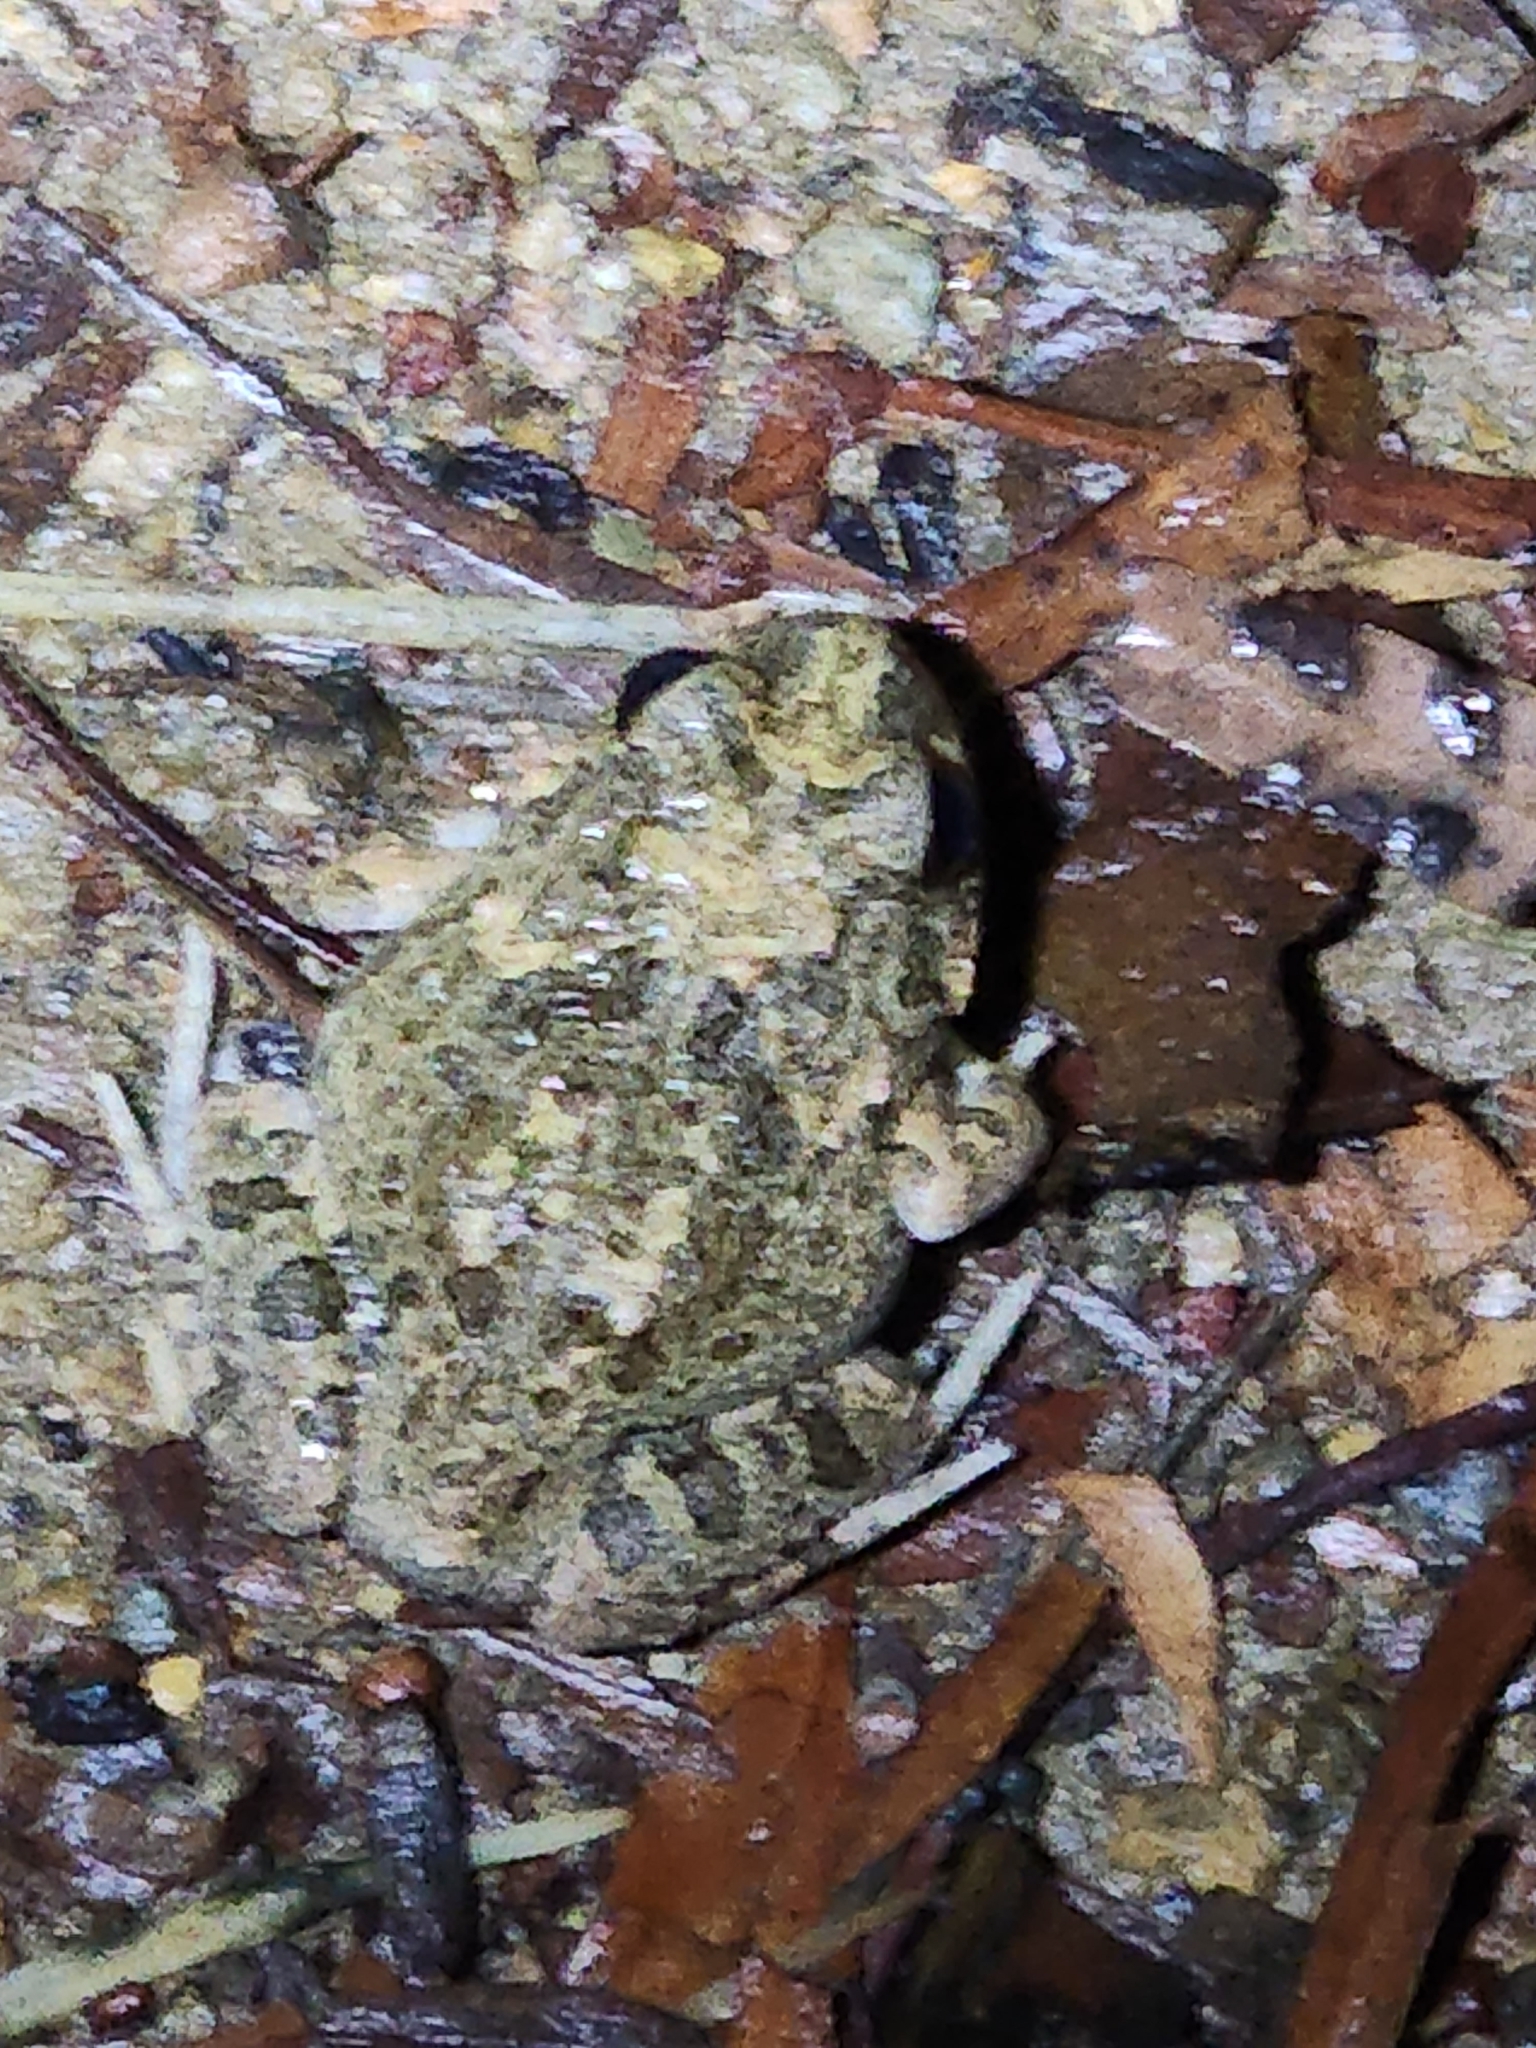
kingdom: Animalia
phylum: Chordata
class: Amphibia
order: Anura
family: Limnodynastidae
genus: Platyplectrum
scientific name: Platyplectrum ornatum
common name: Ornate burrowing frog
